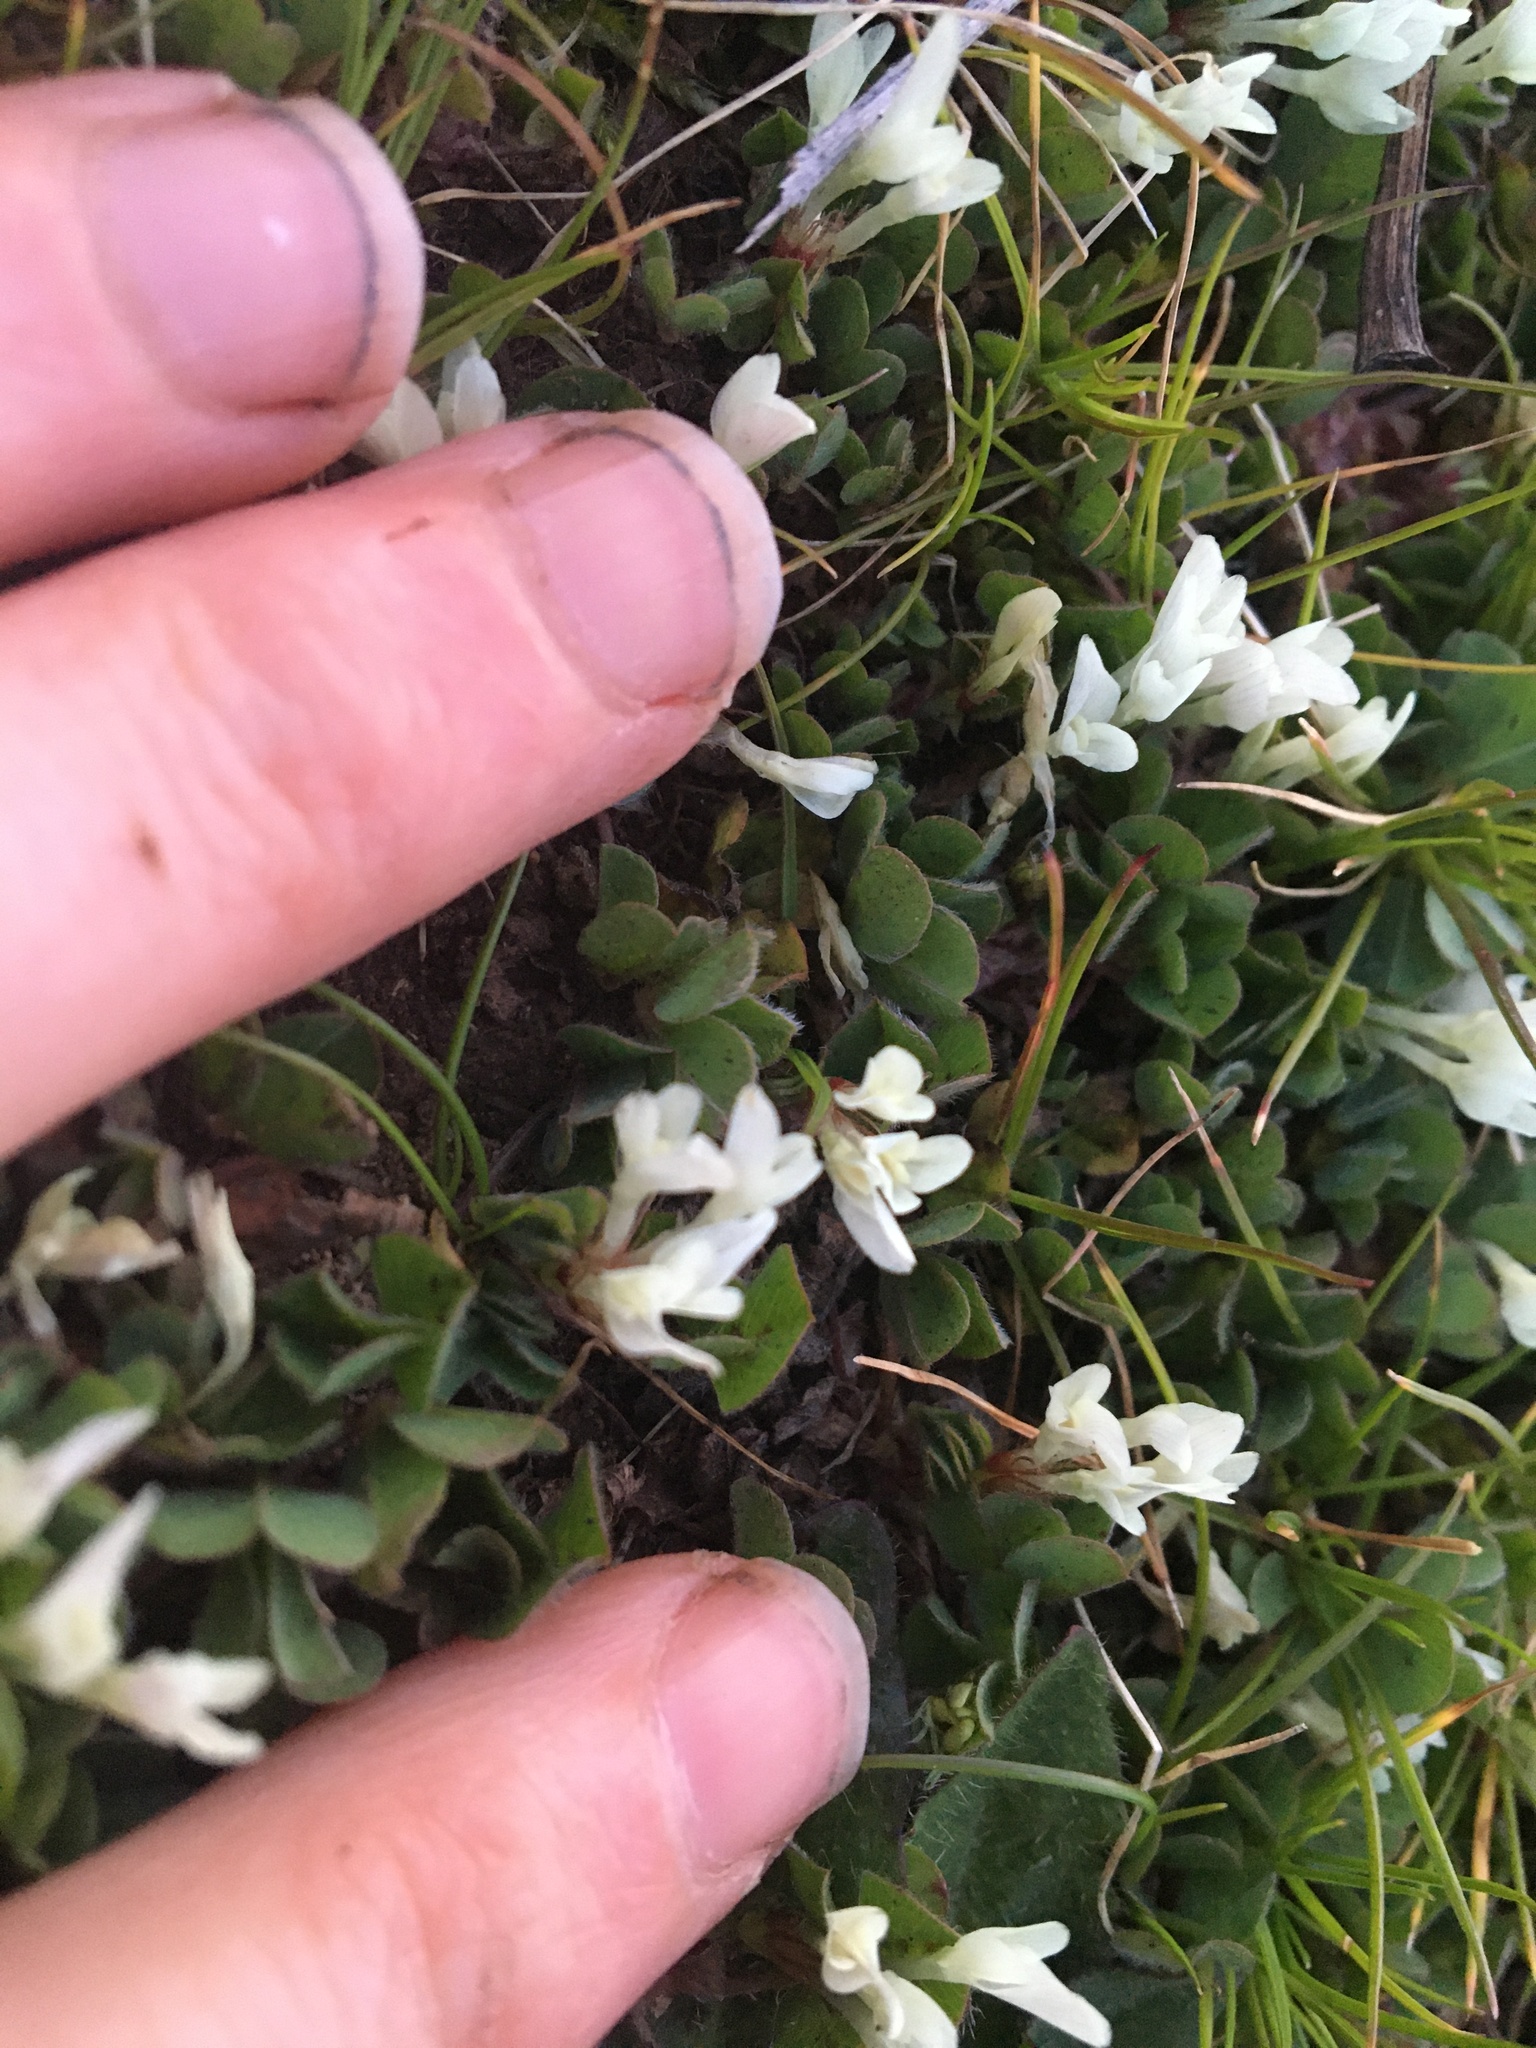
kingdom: Plantae
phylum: Tracheophyta
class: Magnoliopsida
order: Fabales
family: Fabaceae
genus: Trifolium
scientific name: Trifolium subterraneum
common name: Subterranean clover
